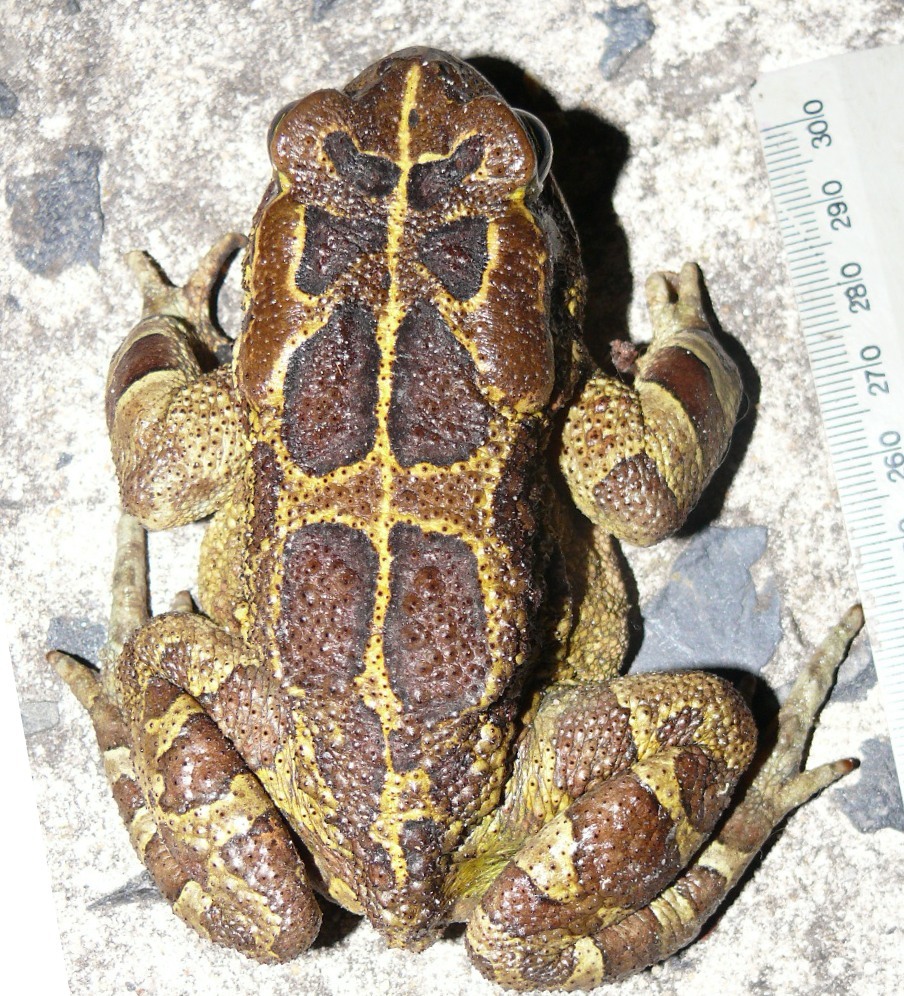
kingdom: Animalia
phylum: Chordata
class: Amphibia
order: Anura
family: Bufonidae
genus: Sclerophrys
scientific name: Sclerophrys pantherina
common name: Panther toad
